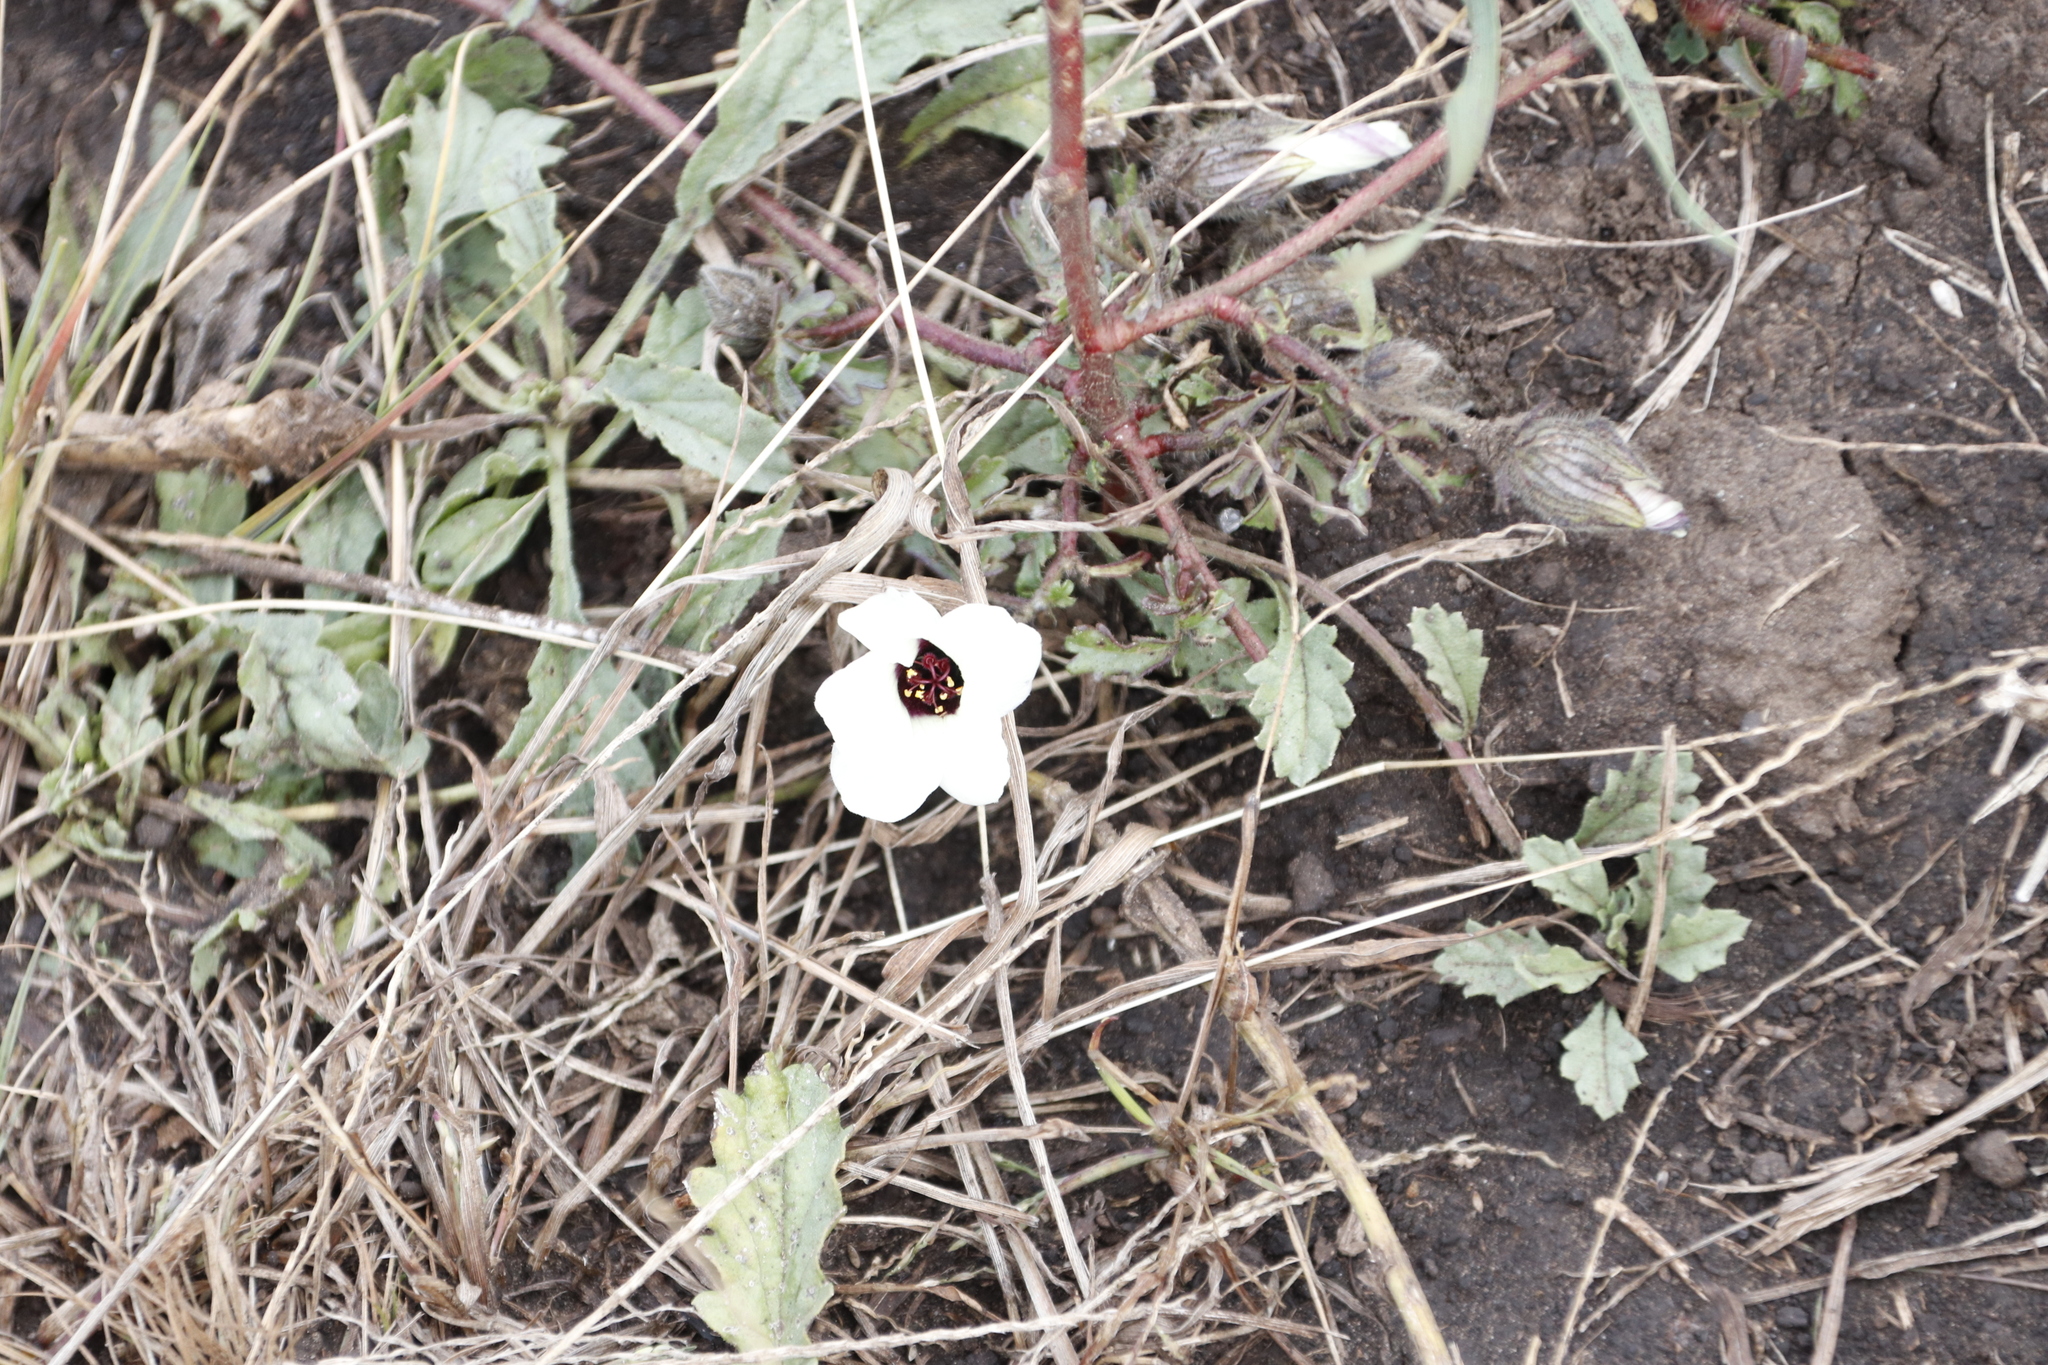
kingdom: Plantae
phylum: Tracheophyta
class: Magnoliopsida
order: Malvales
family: Malvaceae
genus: Hibiscus
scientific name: Hibiscus trionum
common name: Bladder ketmia
